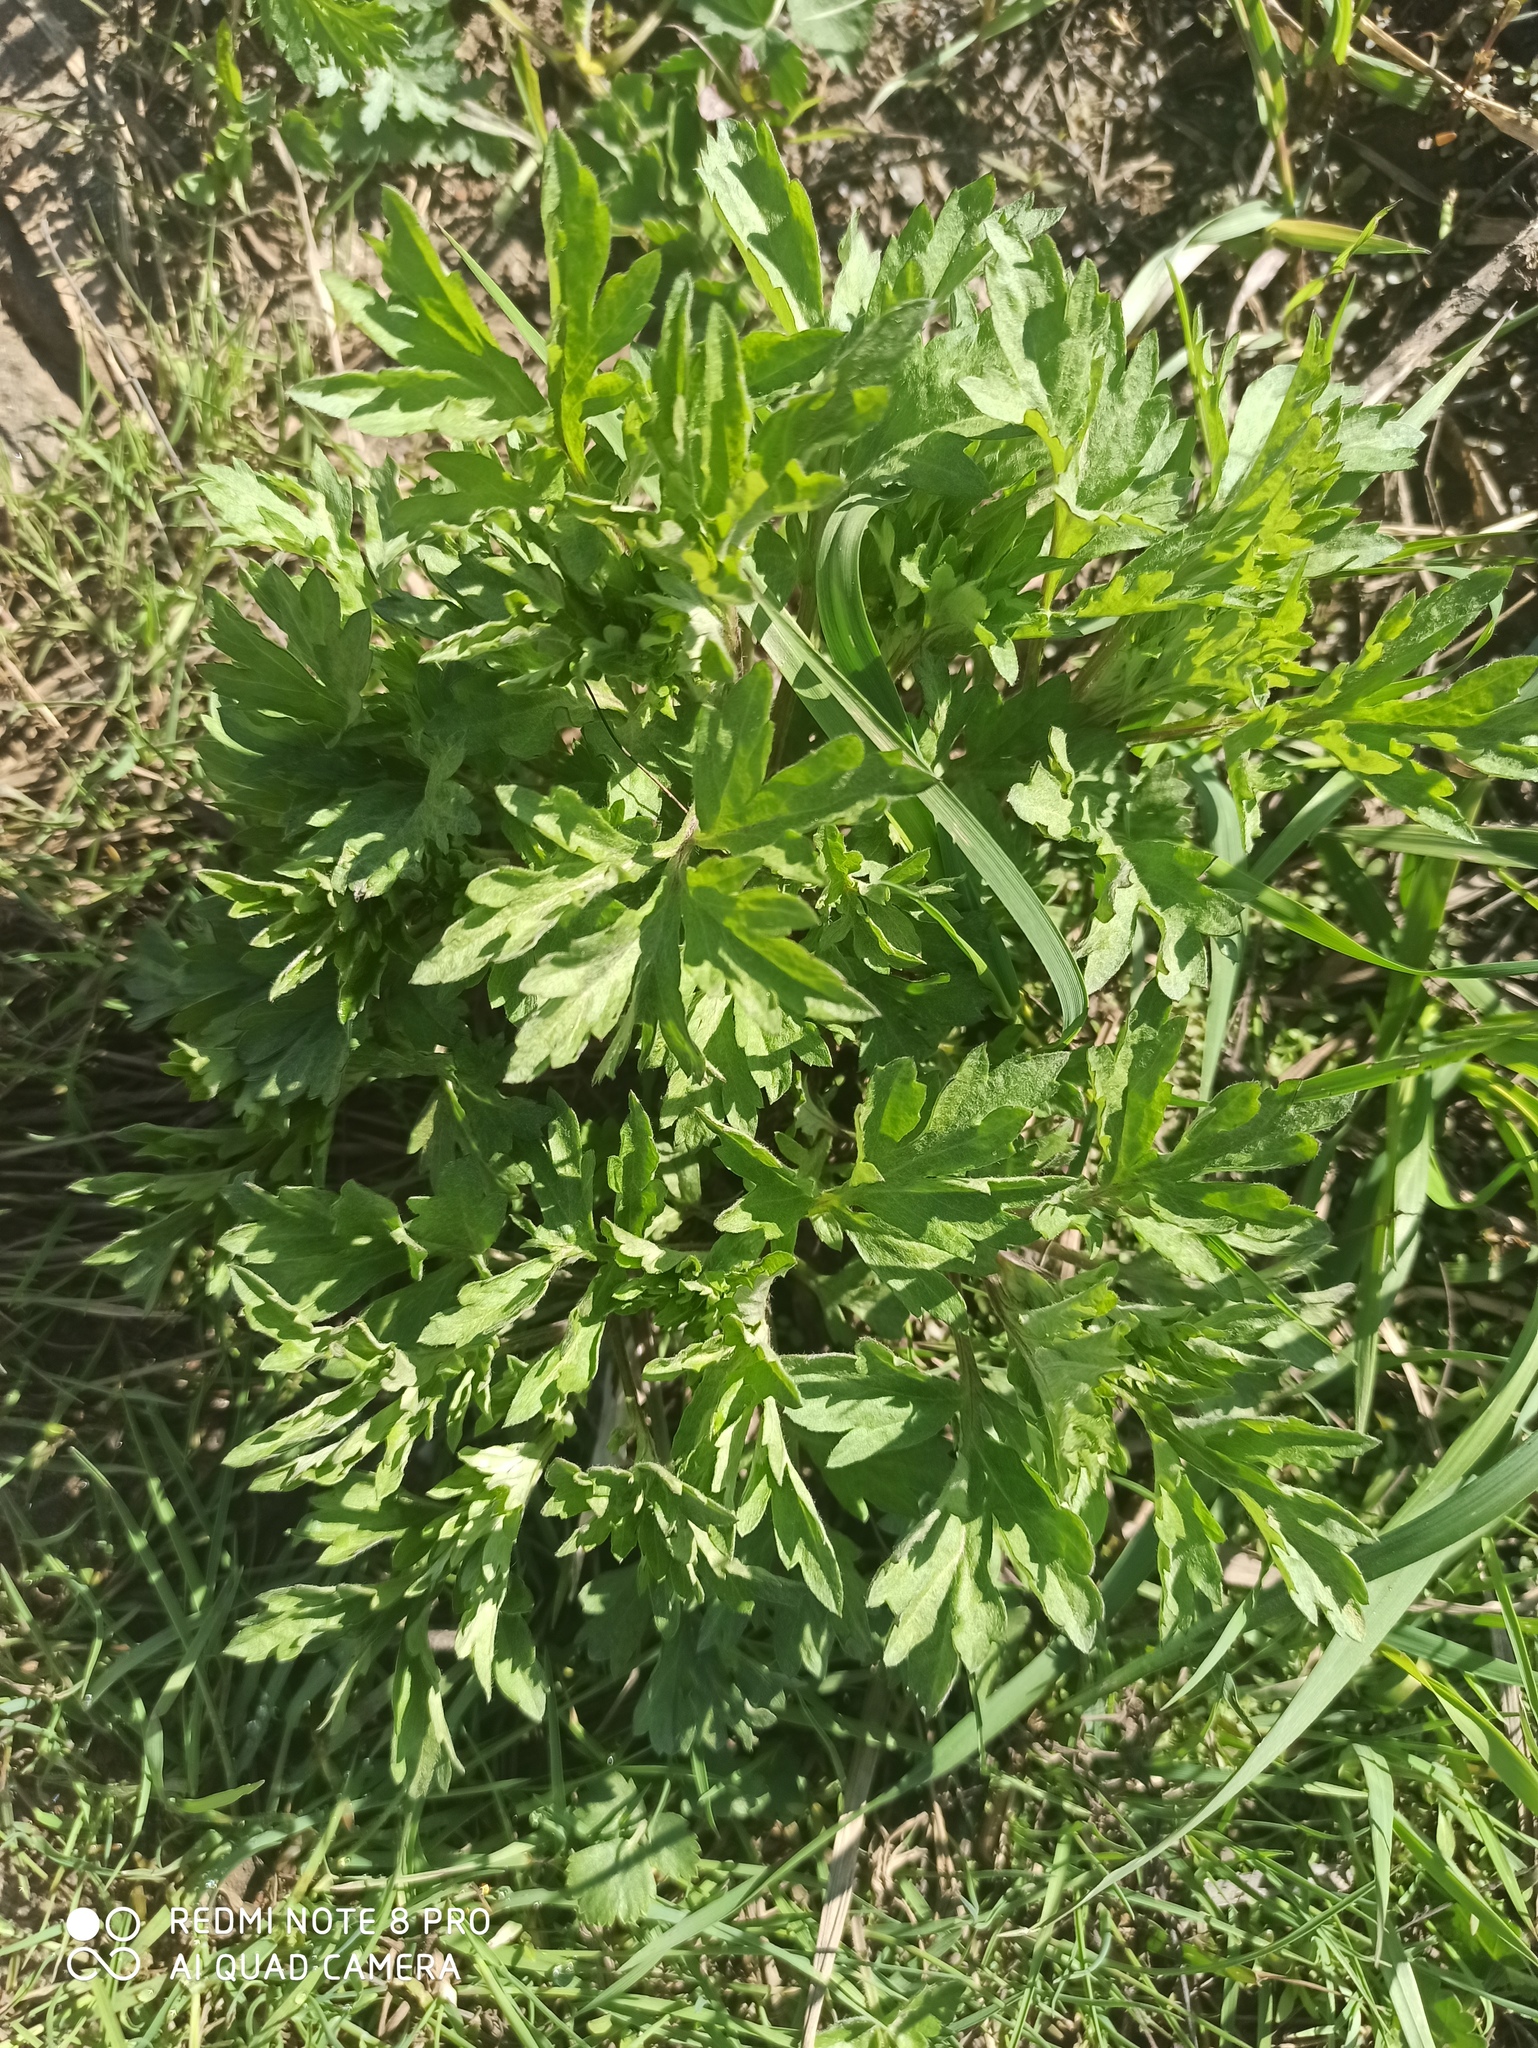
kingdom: Plantae
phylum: Tracheophyta
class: Magnoliopsida
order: Asterales
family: Asteraceae
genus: Artemisia
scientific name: Artemisia vulgaris
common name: Mugwort
